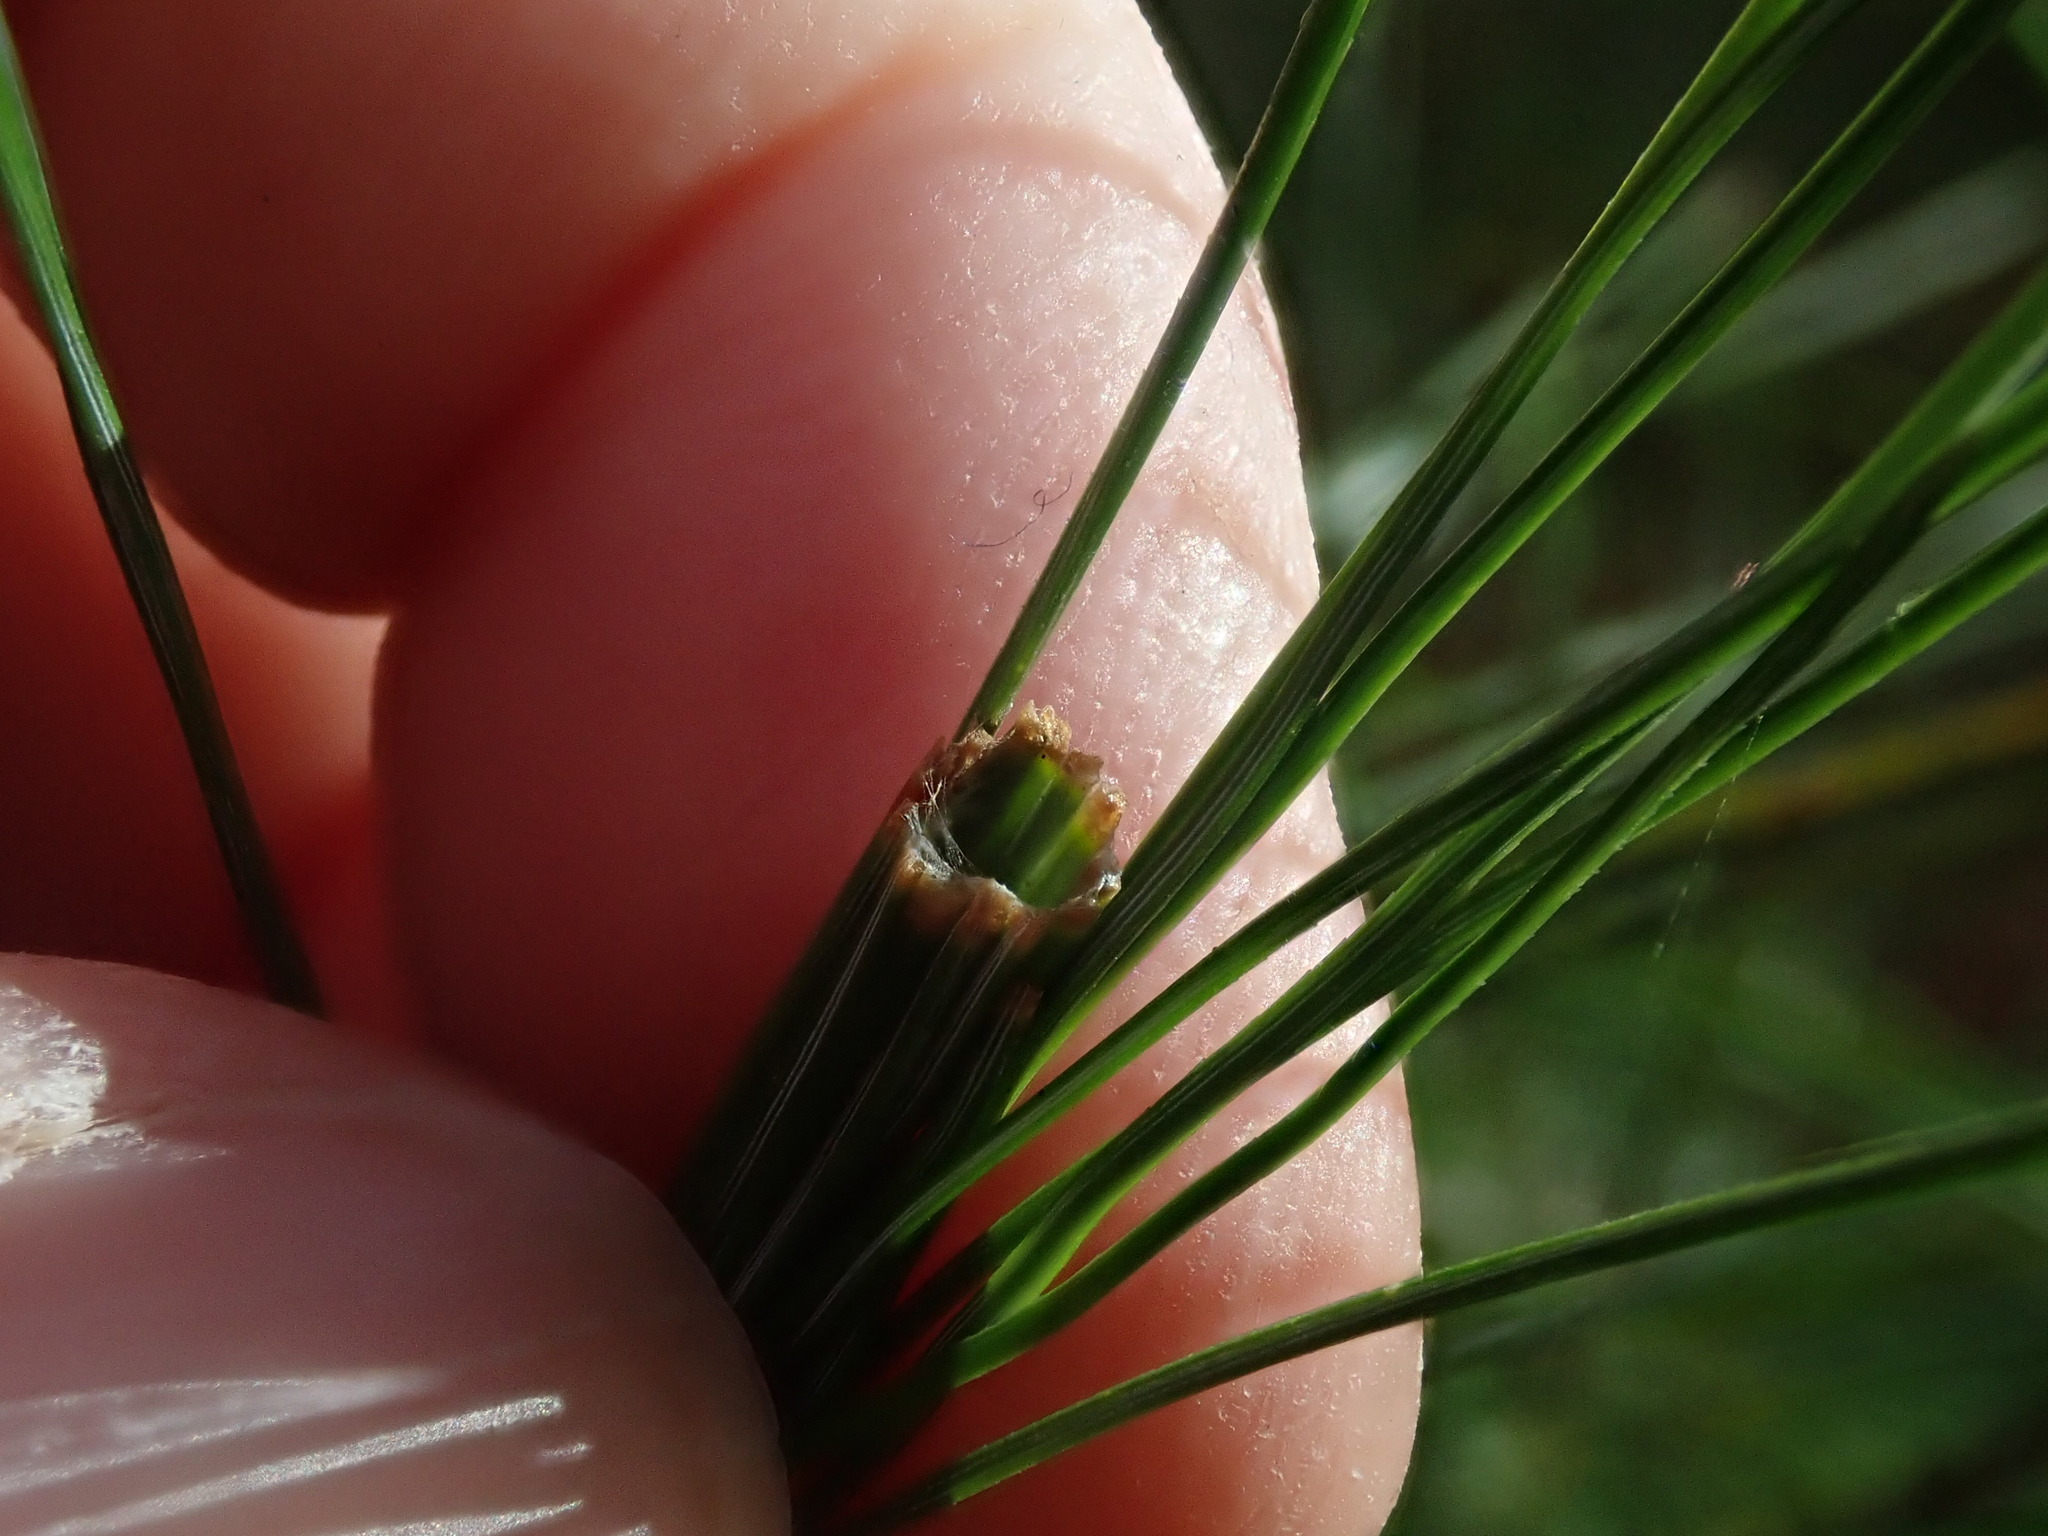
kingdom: Animalia
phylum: Arthropoda
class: Insecta
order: Lepidoptera
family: Tortricidae
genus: Argyrotaenia
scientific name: Argyrotaenia pinatubana
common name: Pine tube moth
